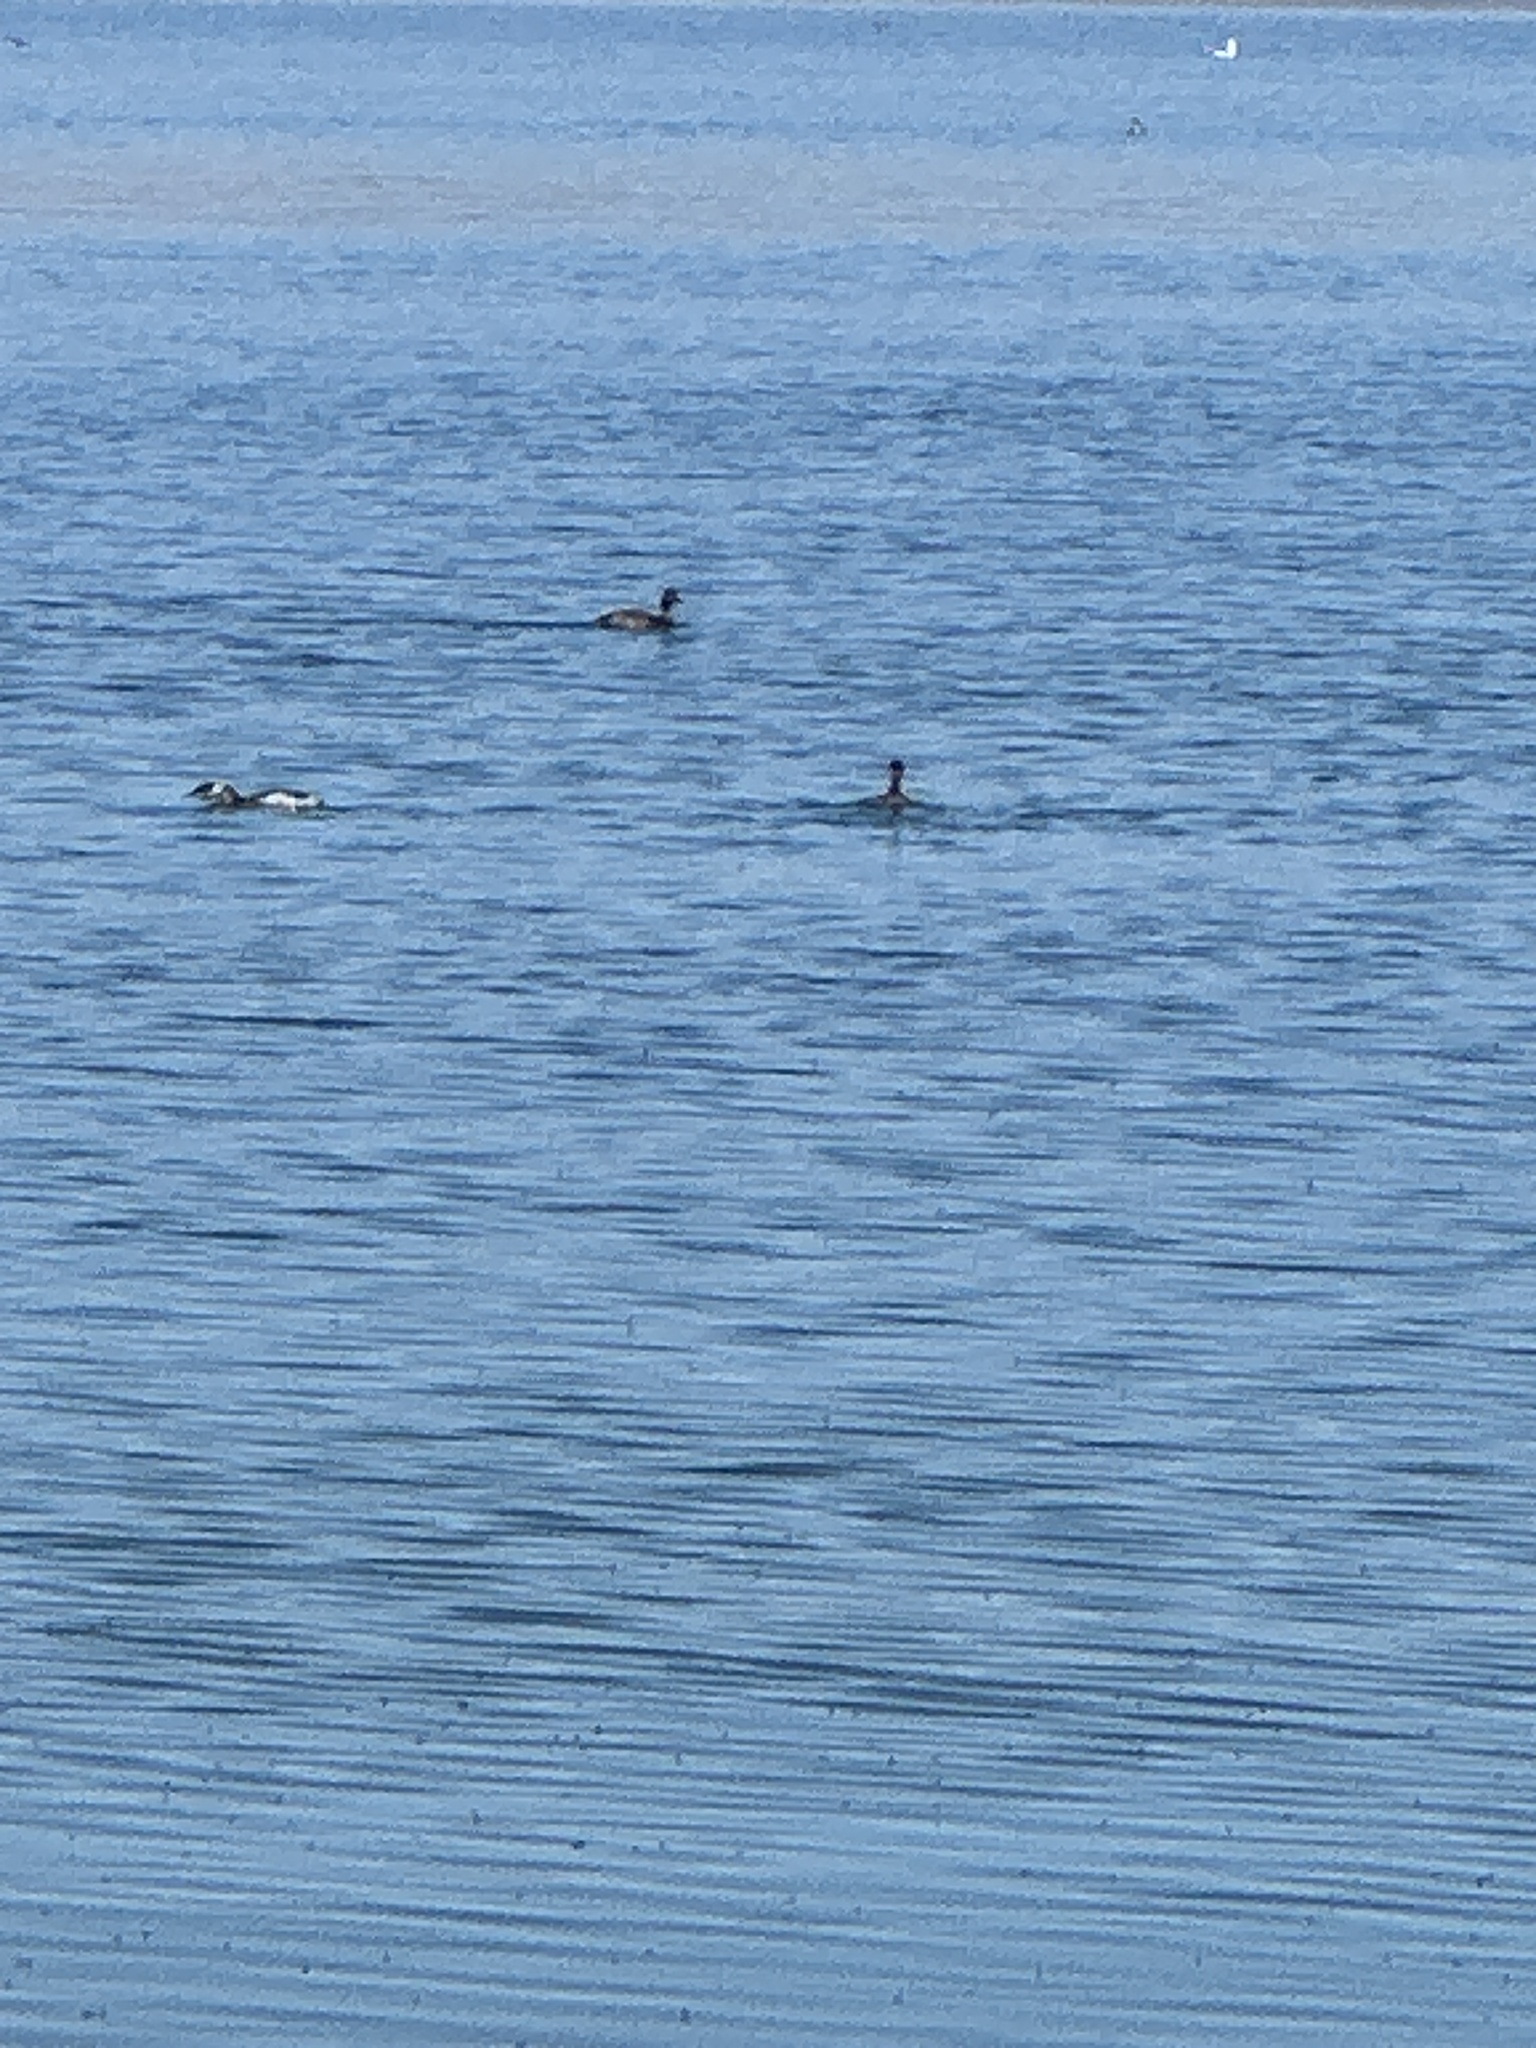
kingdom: Animalia
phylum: Chordata
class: Aves
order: Podicipediformes
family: Podicipedidae
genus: Podiceps
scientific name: Podiceps nigricollis
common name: Black-necked grebe
